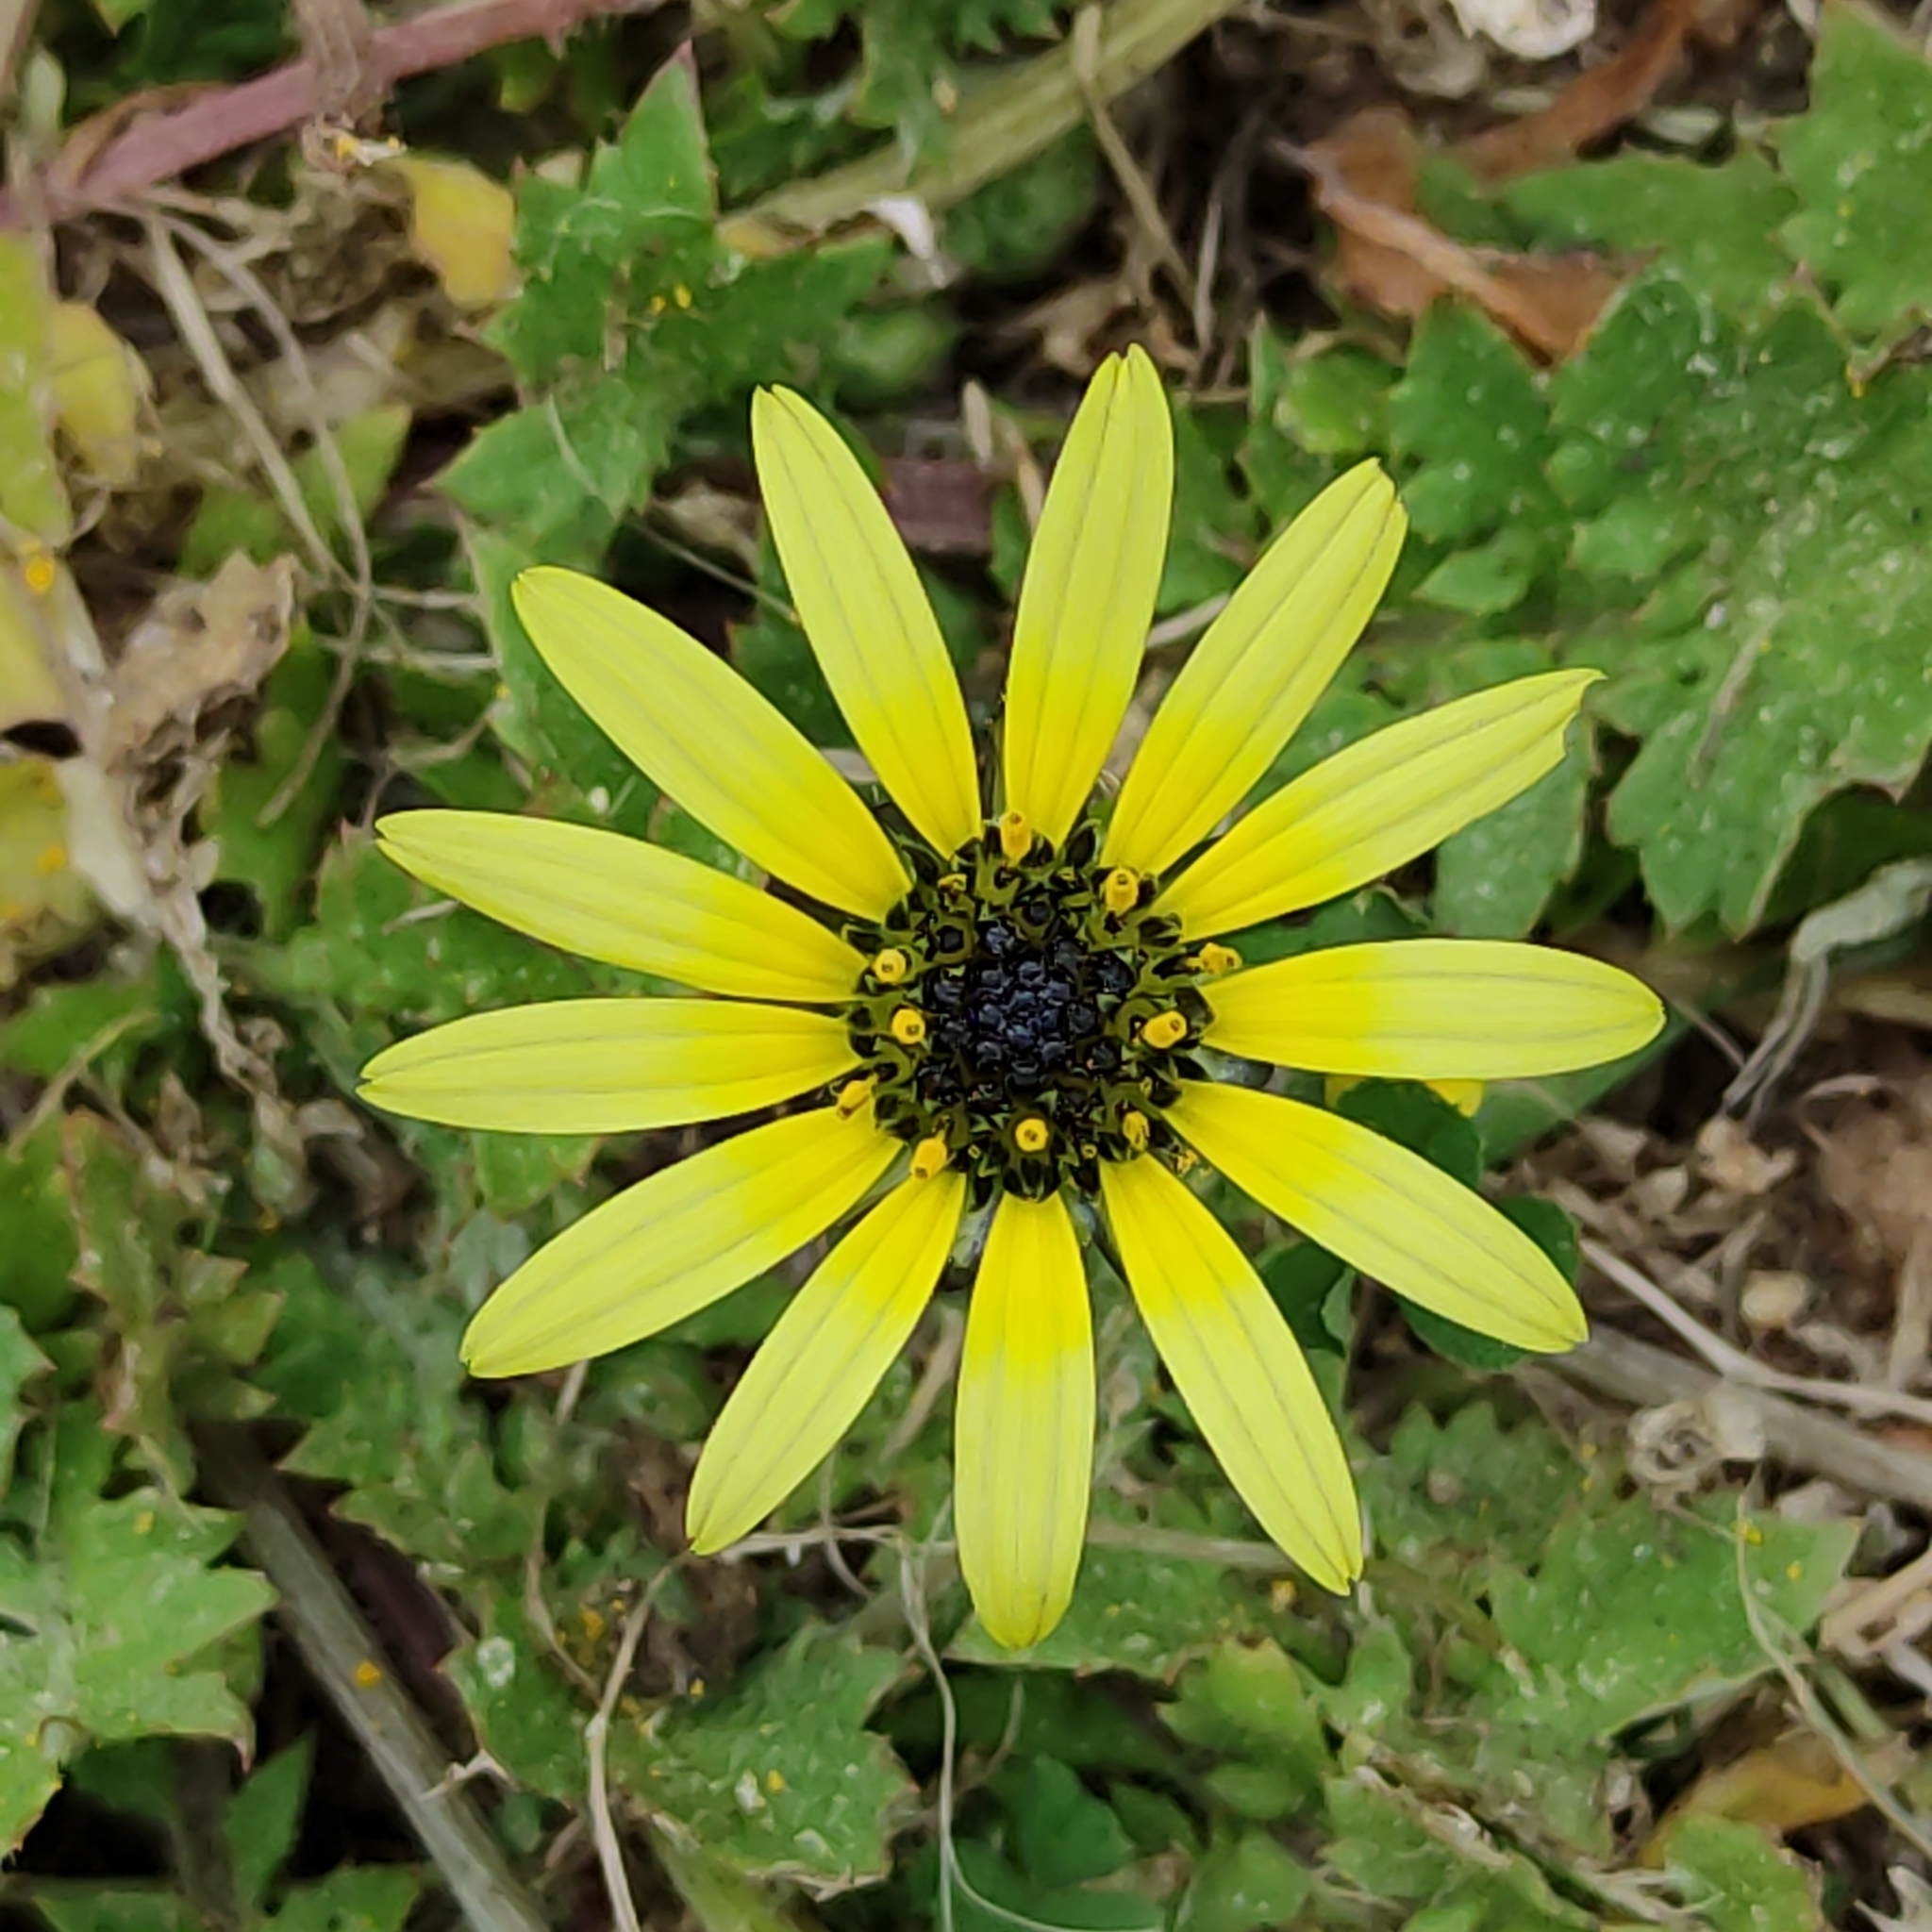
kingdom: Plantae
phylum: Tracheophyta
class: Magnoliopsida
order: Asterales
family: Asteraceae
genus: Arctotheca
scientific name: Arctotheca calendula
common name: Capeweed
